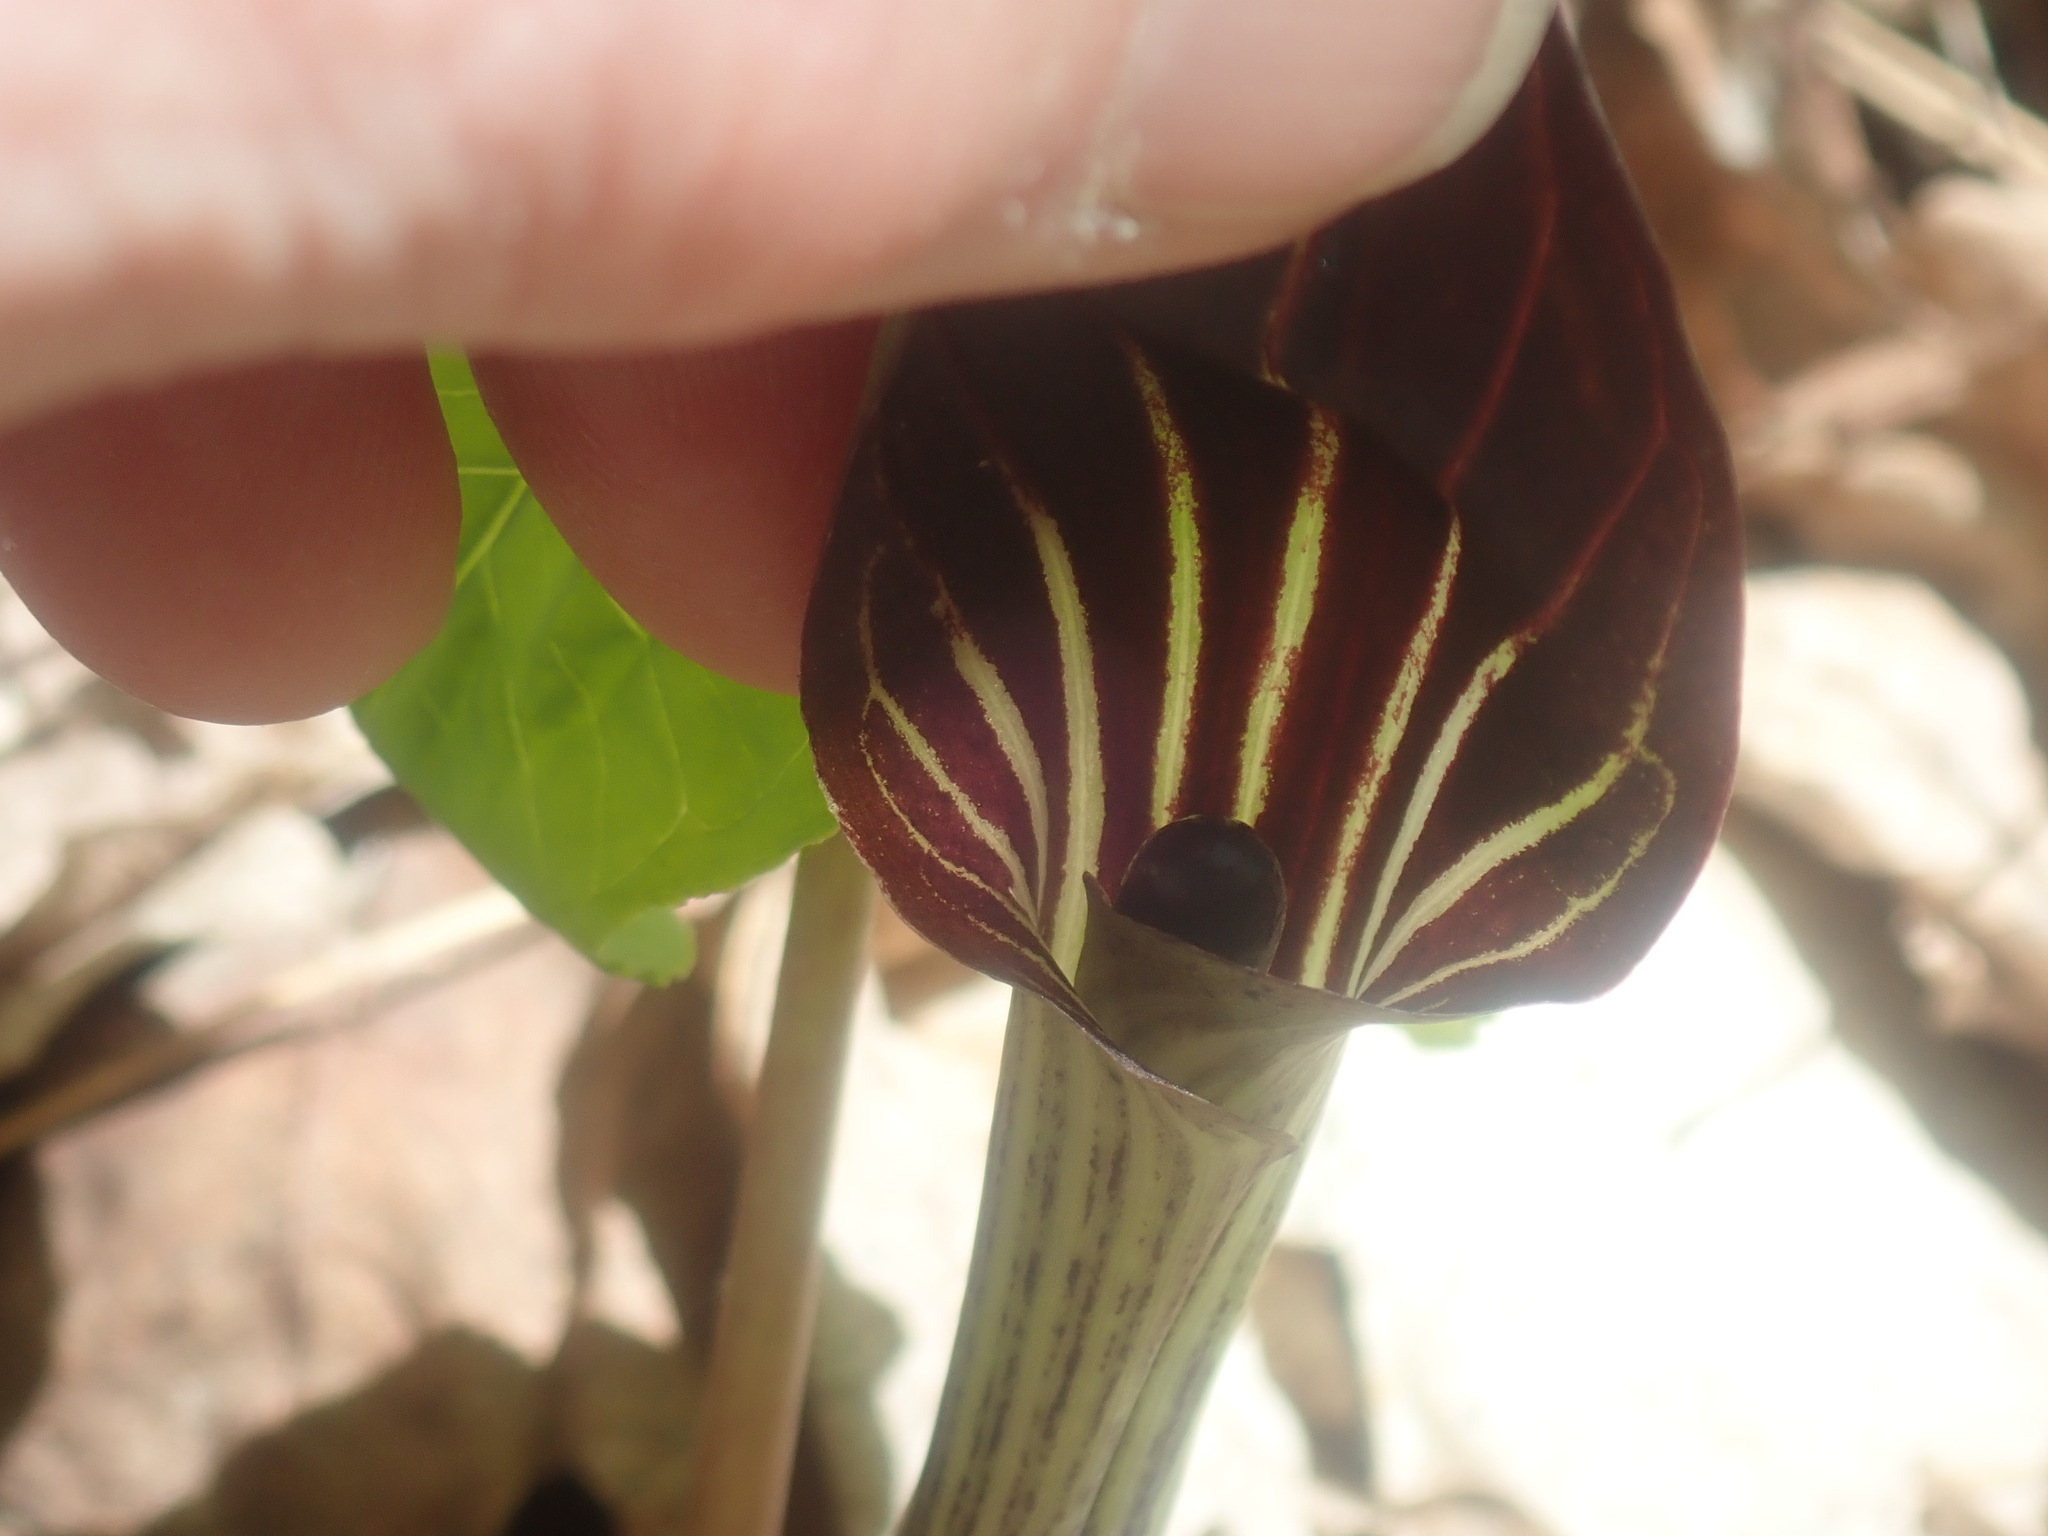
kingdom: Plantae
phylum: Tracheophyta
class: Liliopsida
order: Alismatales
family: Araceae
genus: Arisaema
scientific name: Arisaema triphyllum
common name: Jack-in-the-pulpit
